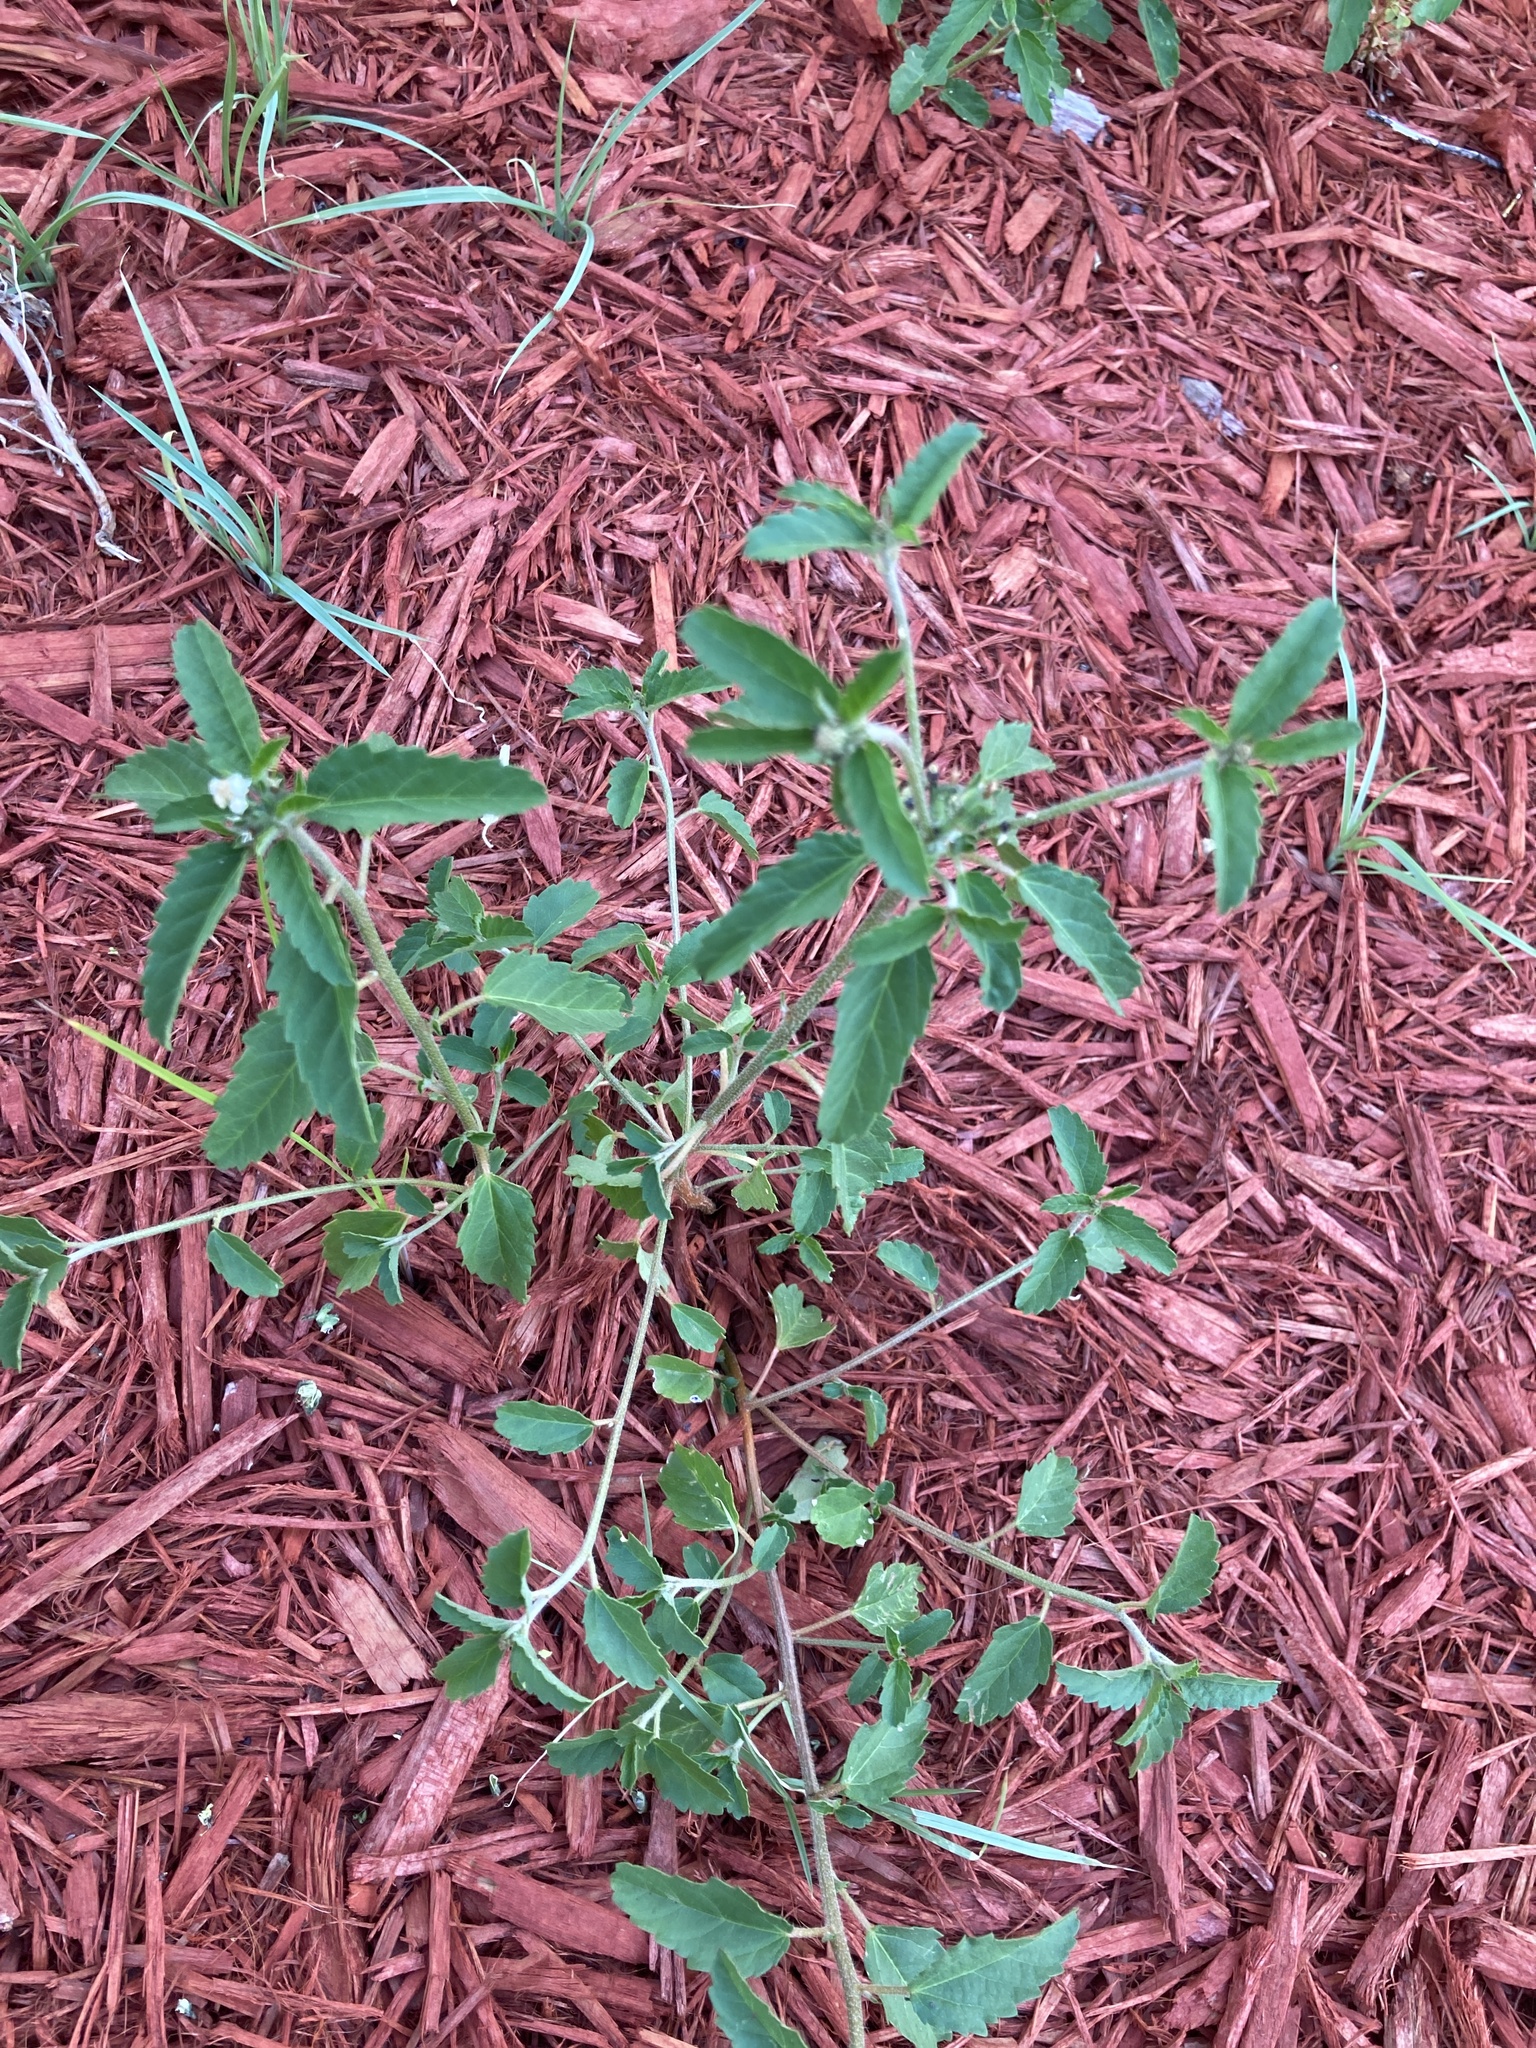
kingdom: Plantae
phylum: Tracheophyta
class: Magnoliopsida
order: Malpighiales
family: Euphorbiaceae
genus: Croton
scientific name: Croton glandulosus
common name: Tropic croton
